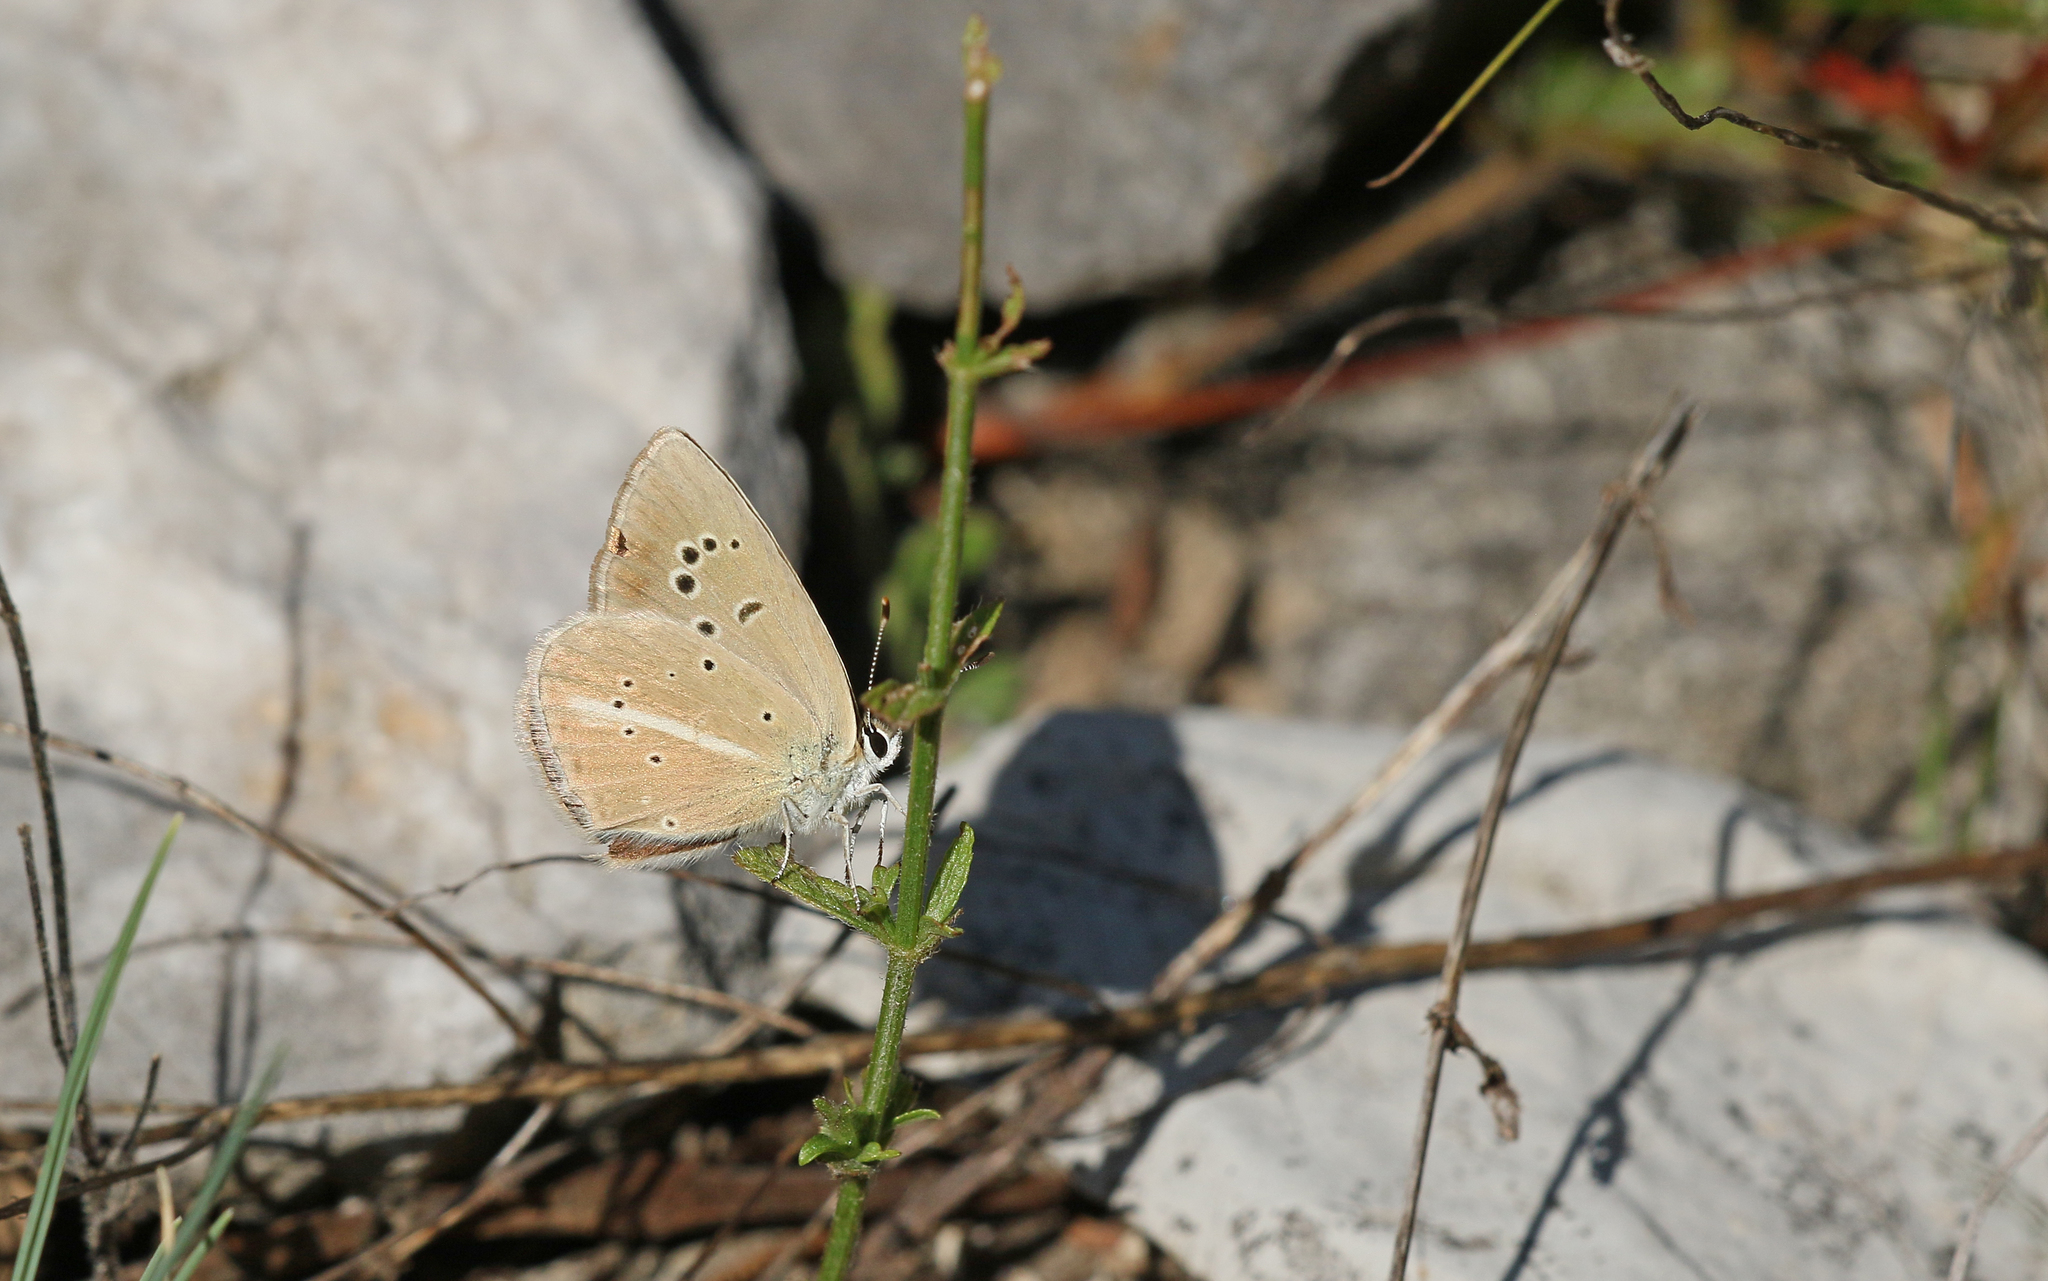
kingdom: Animalia
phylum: Arthropoda
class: Insecta
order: Lepidoptera
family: Lycaenidae
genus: Agrodiaetus
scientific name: Agrodiaetus damon
